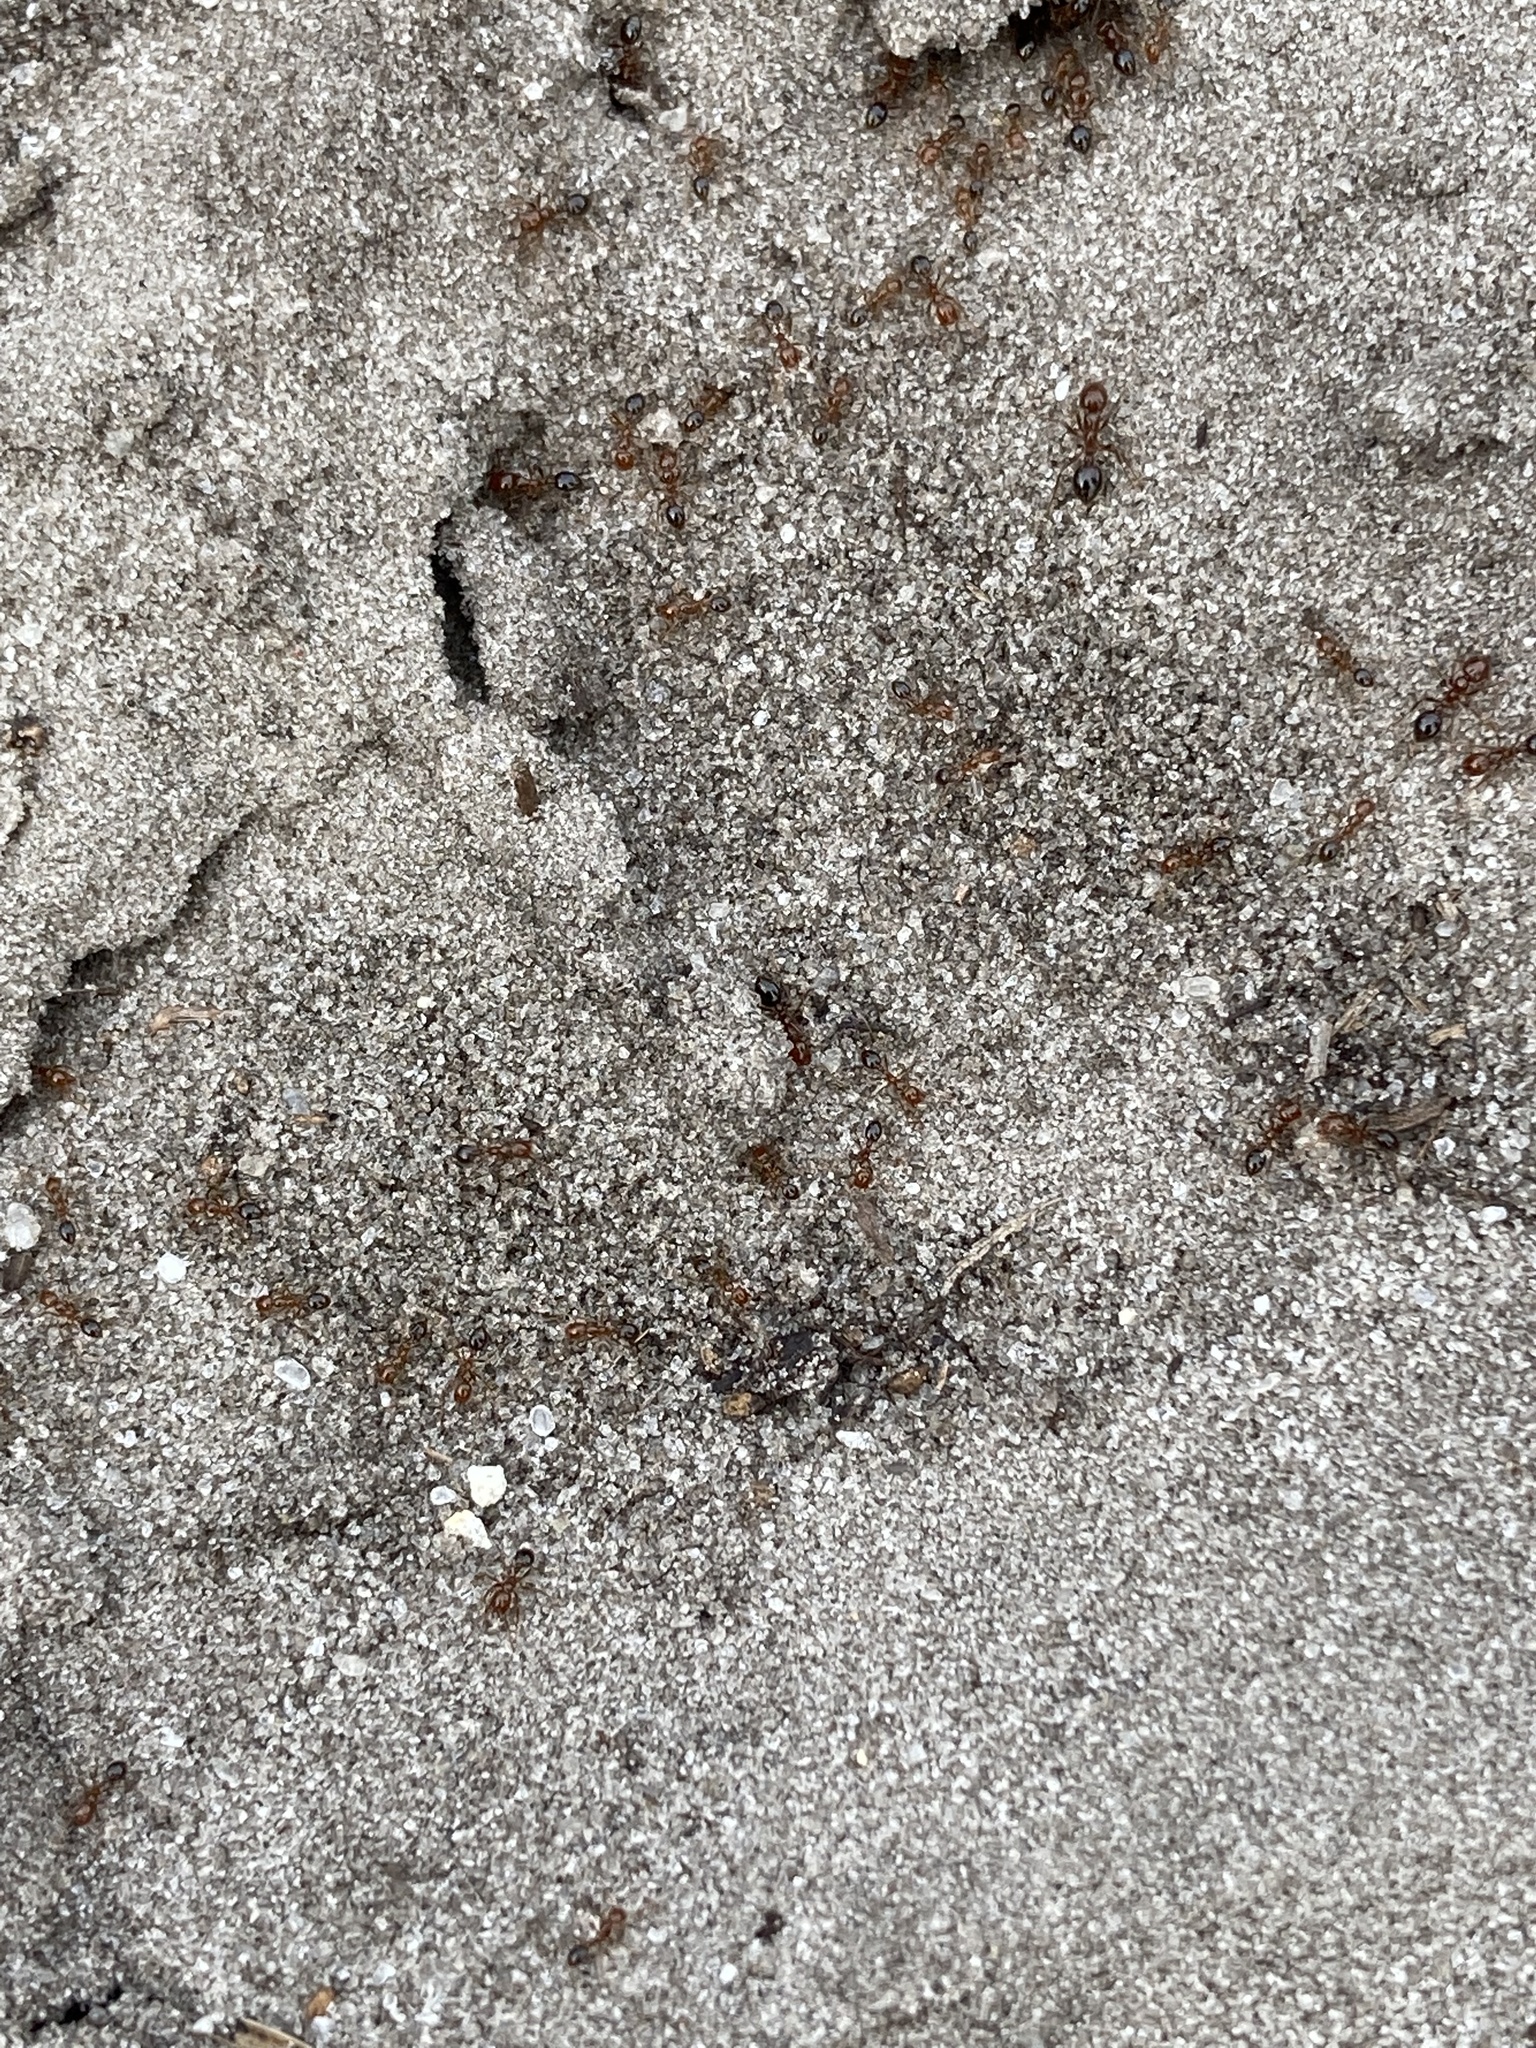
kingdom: Animalia
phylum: Arthropoda
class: Insecta
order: Hymenoptera
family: Formicidae
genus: Solenopsis
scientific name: Solenopsis invicta
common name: Red imported fire ant
